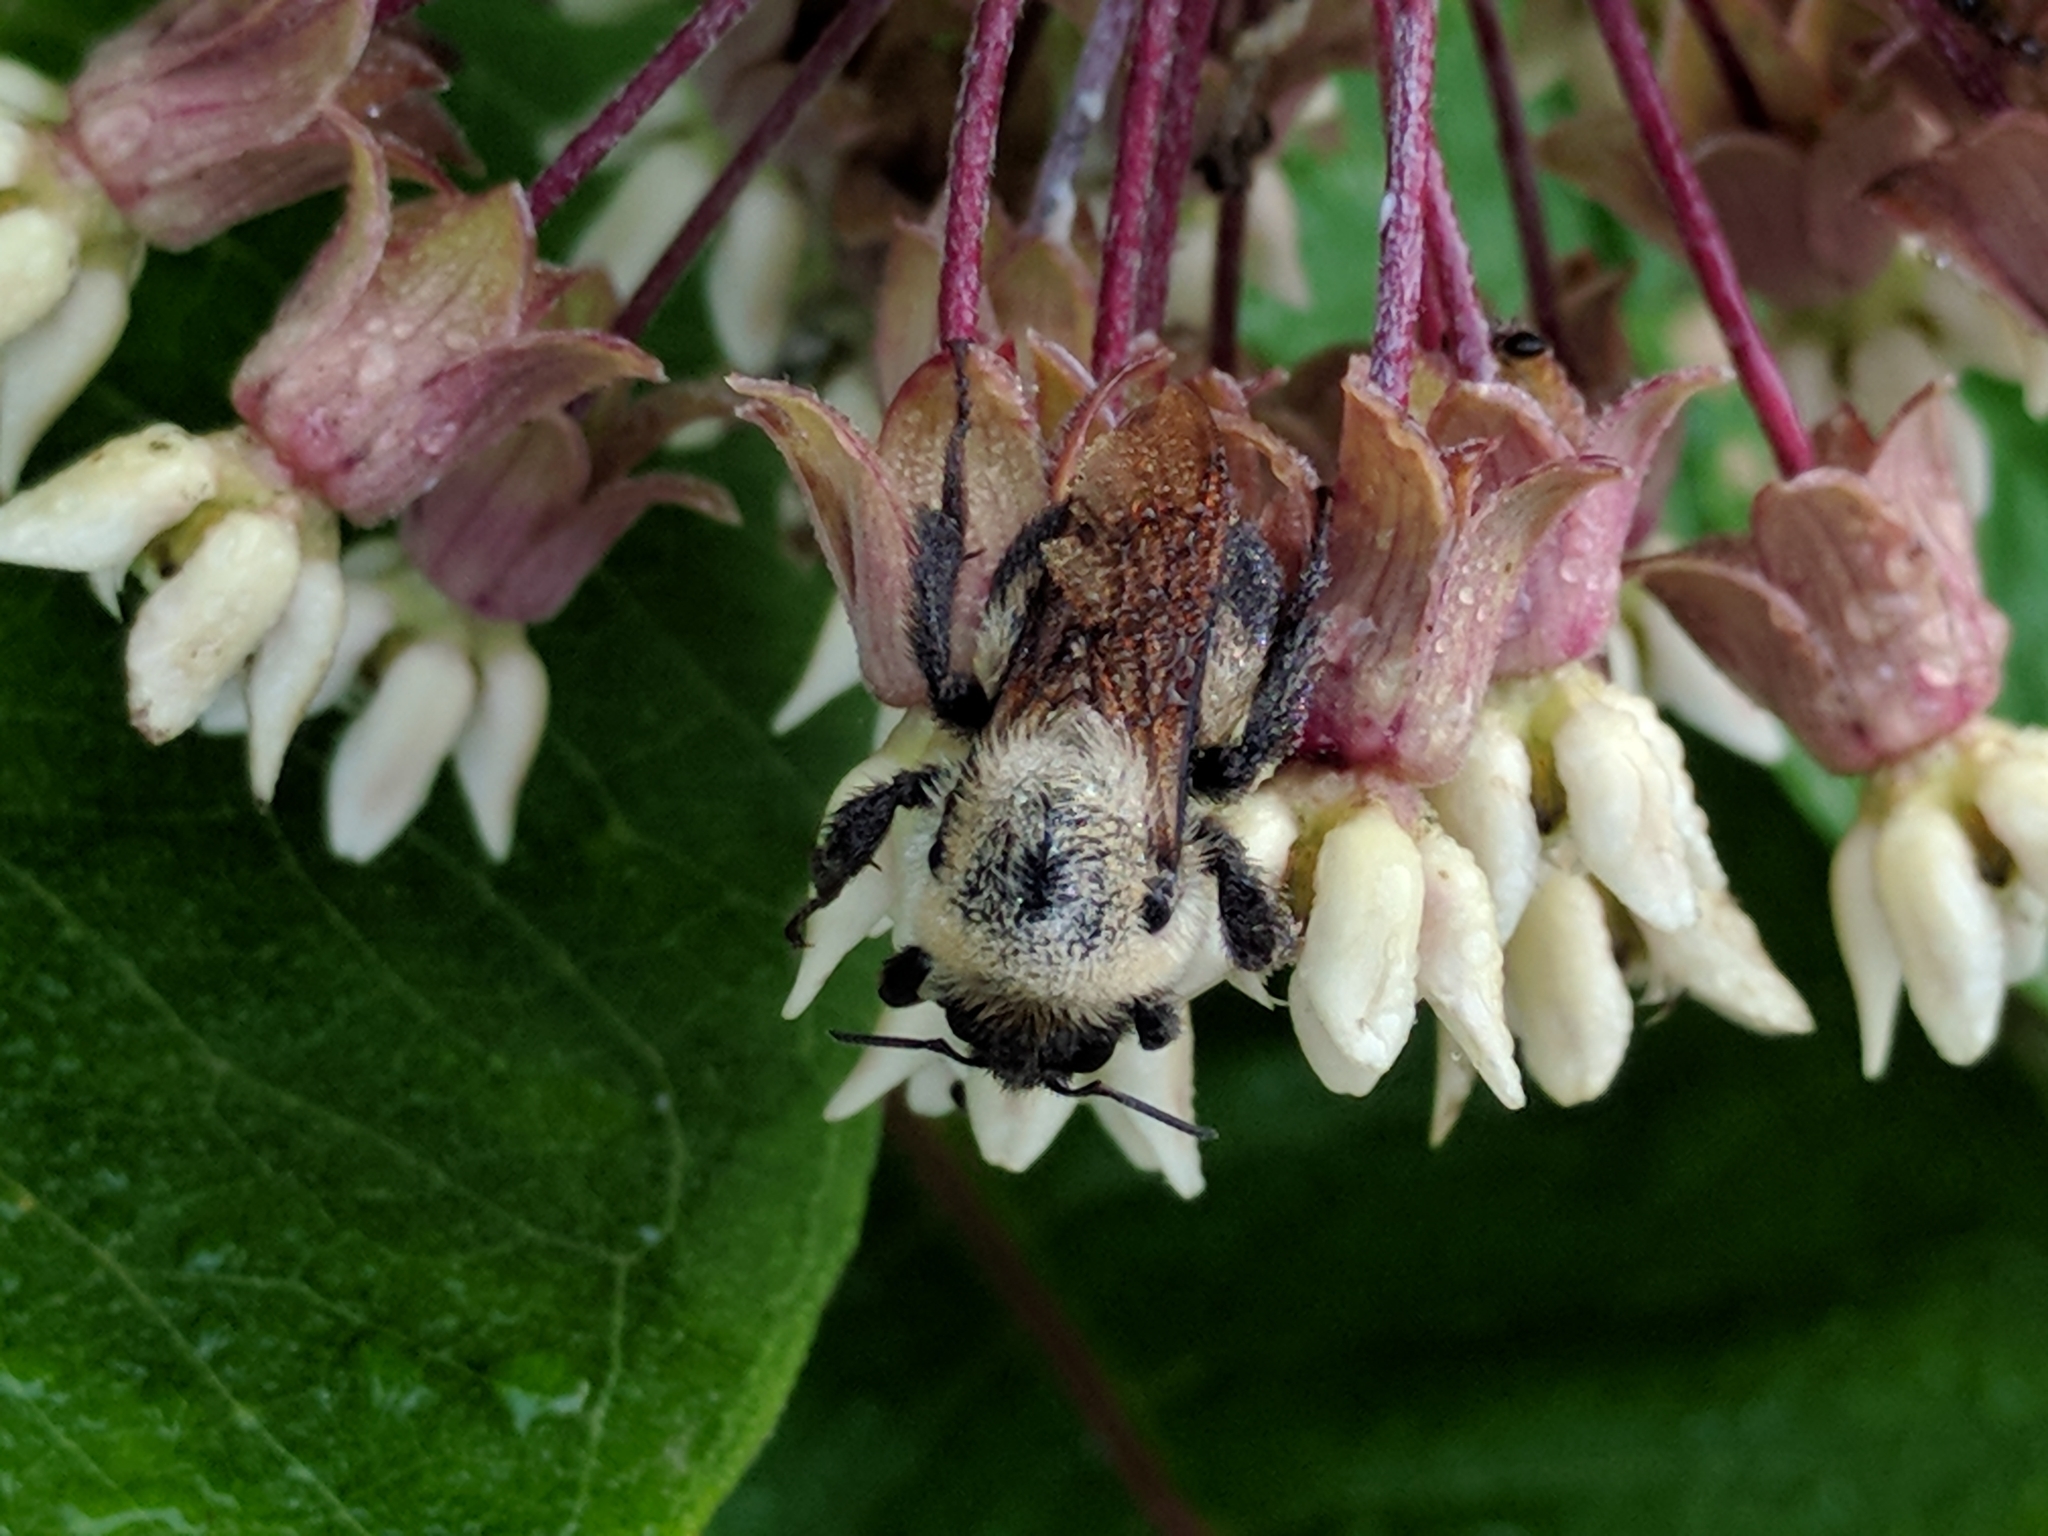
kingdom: Animalia
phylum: Arthropoda
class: Insecta
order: Hymenoptera
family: Apidae
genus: Bombus
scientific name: Bombus griseocollis
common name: Brown-belted bumble bee
